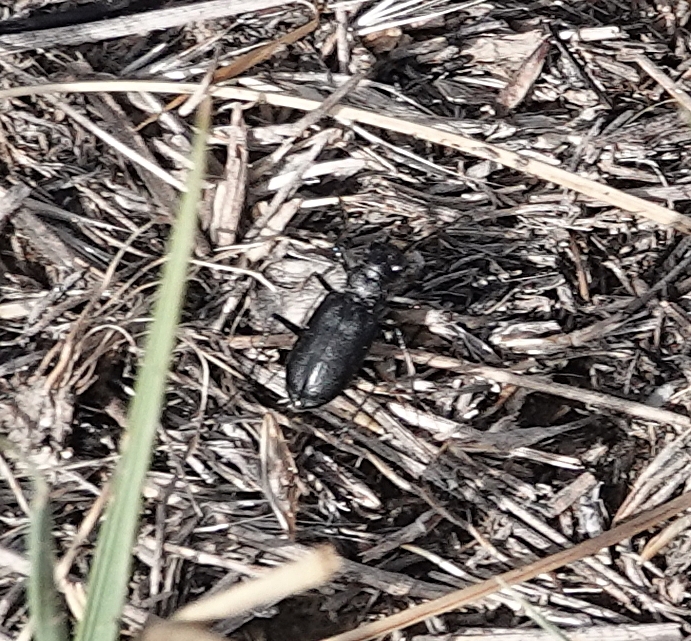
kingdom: Animalia
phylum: Arthropoda
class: Insecta
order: Coleoptera
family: Carabidae
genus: Cicindela
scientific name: Cicindela nebraskana
